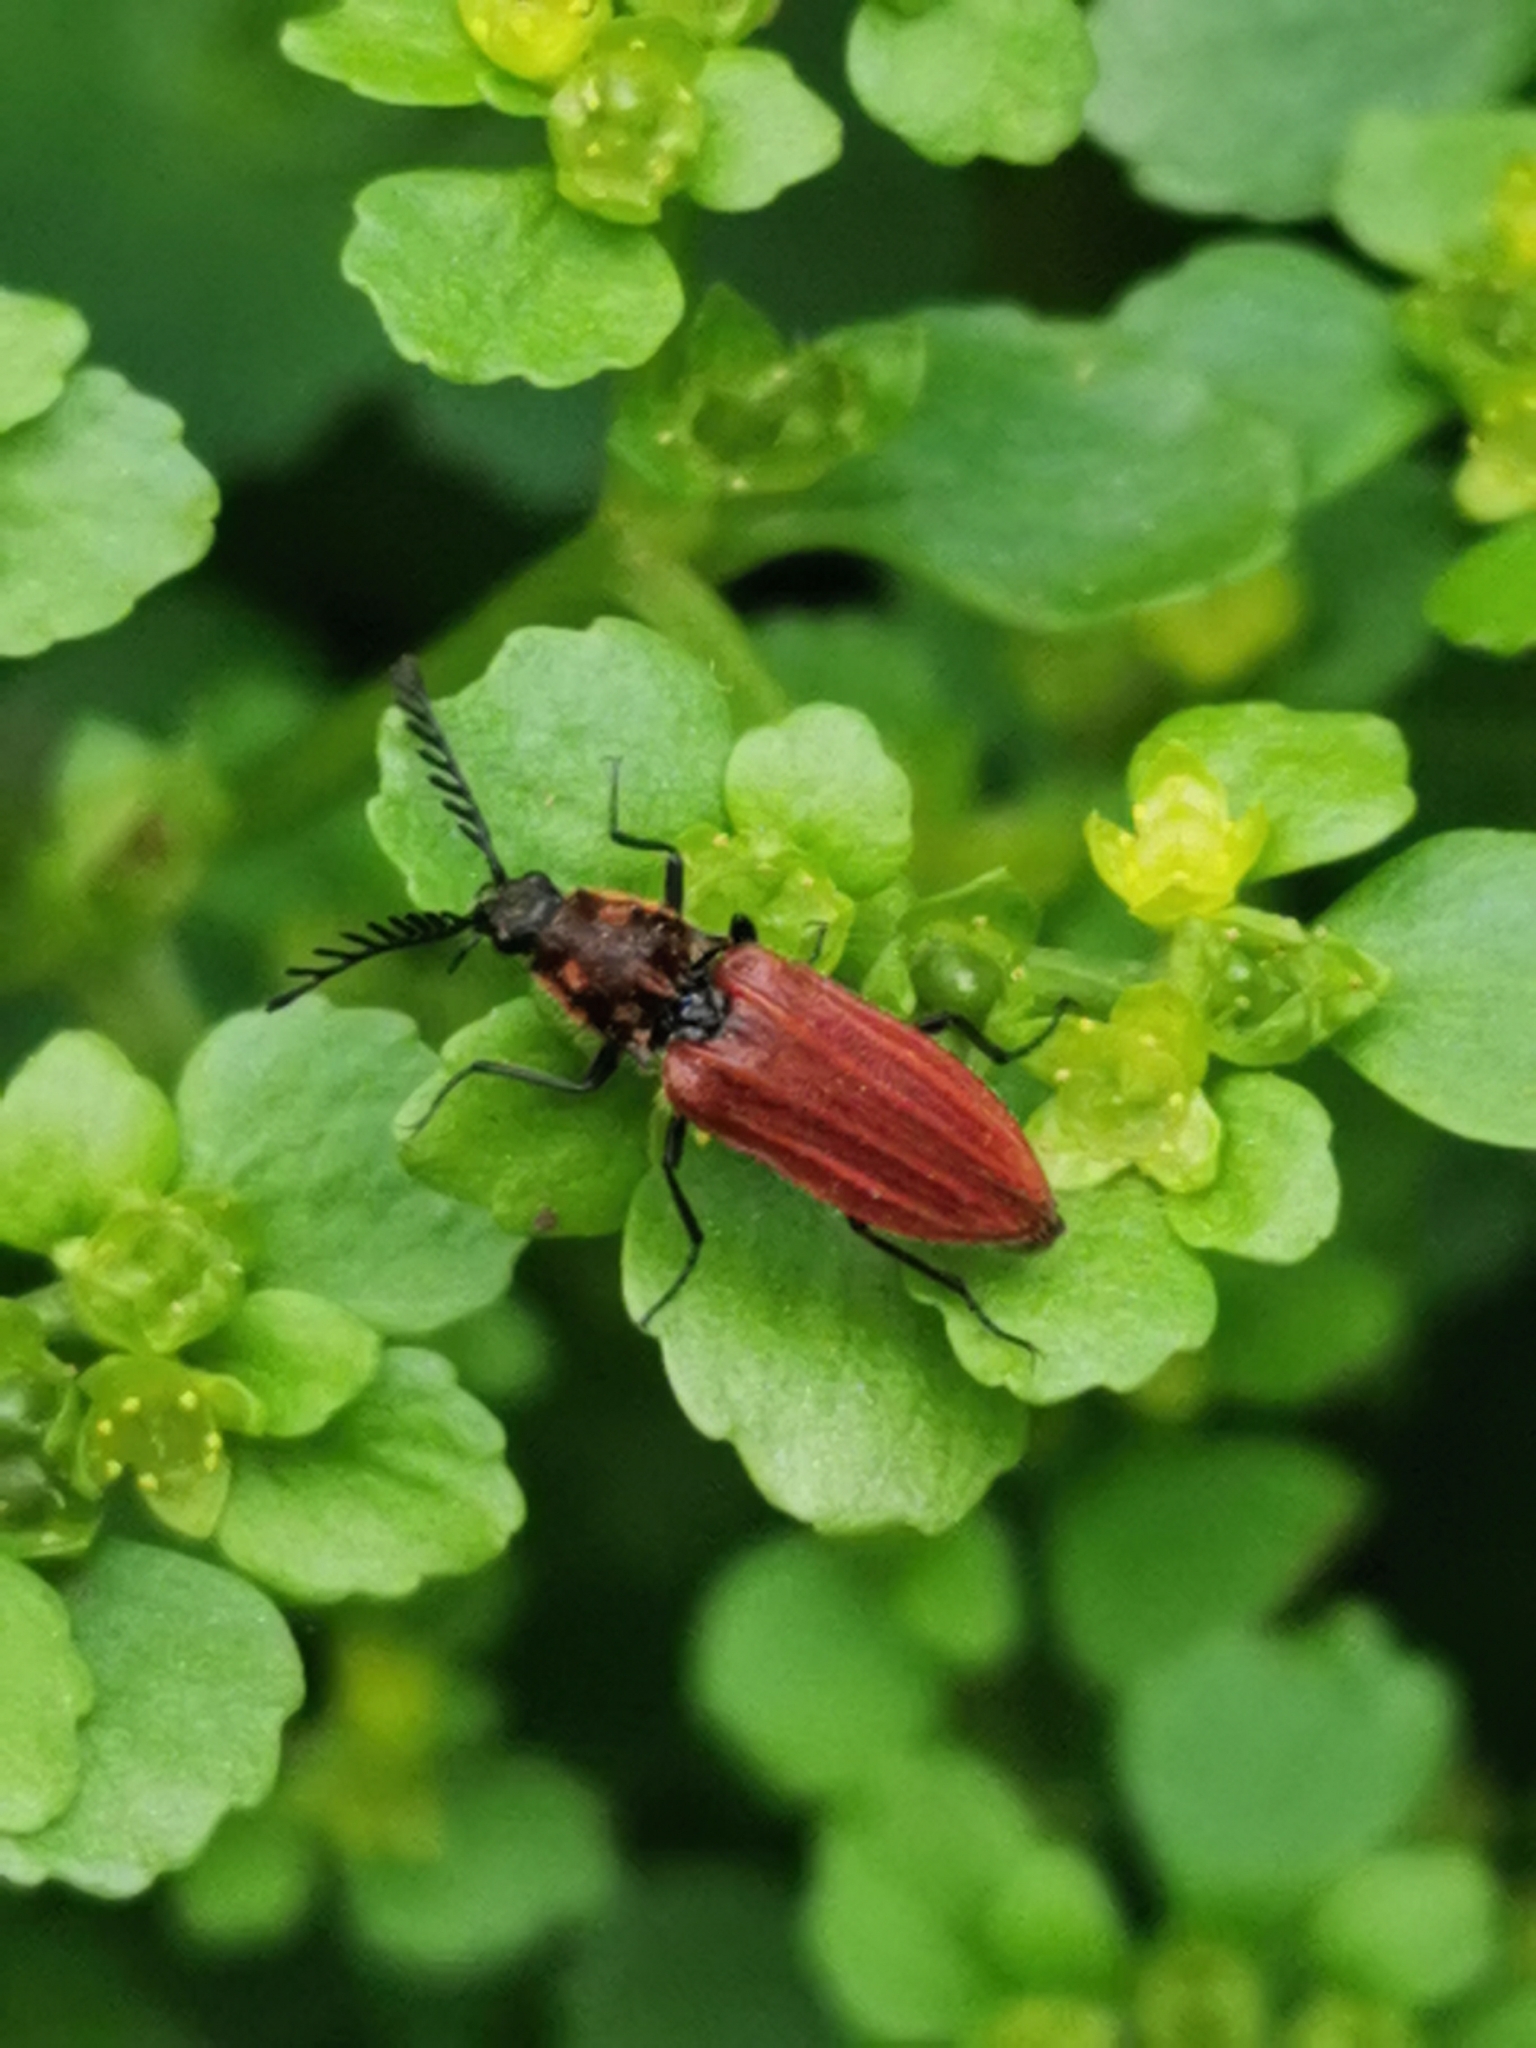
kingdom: Animalia
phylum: Arthropoda
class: Insecta
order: Coleoptera
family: Elateridae
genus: Anostirus
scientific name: Anostirus purpureus
